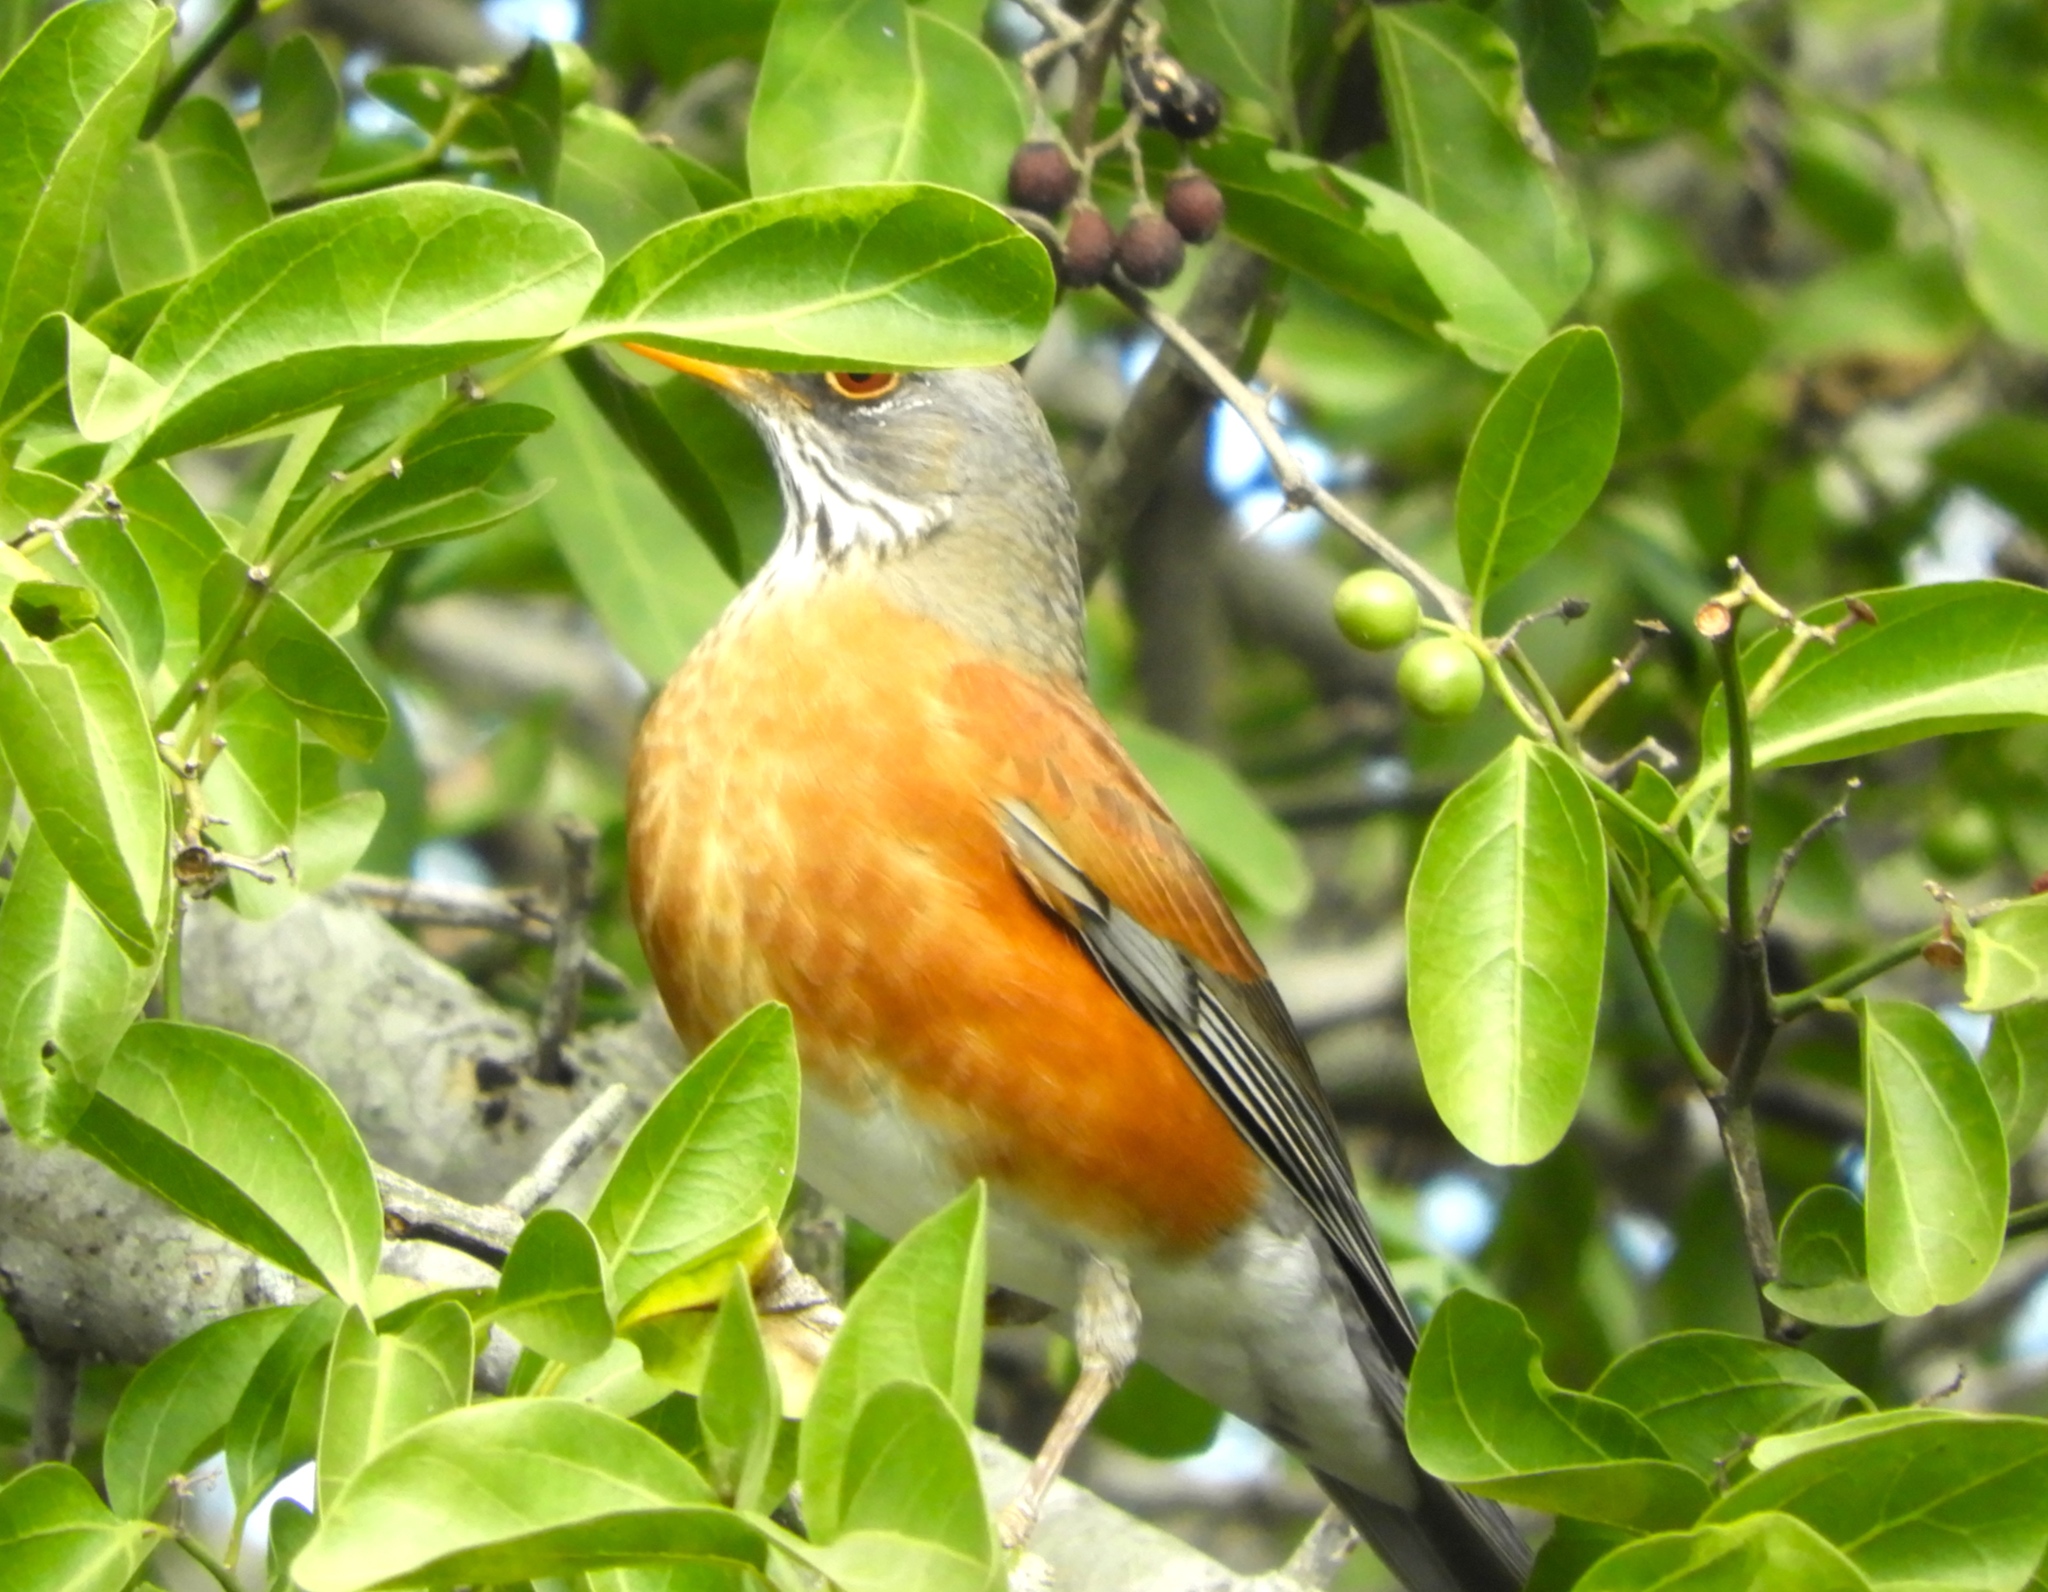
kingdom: Animalia
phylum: Chordata
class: Aves
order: Passeriformes
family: Turdidae
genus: Turdus
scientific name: Turdus rufopalliatus
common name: Rufous-backed robin
